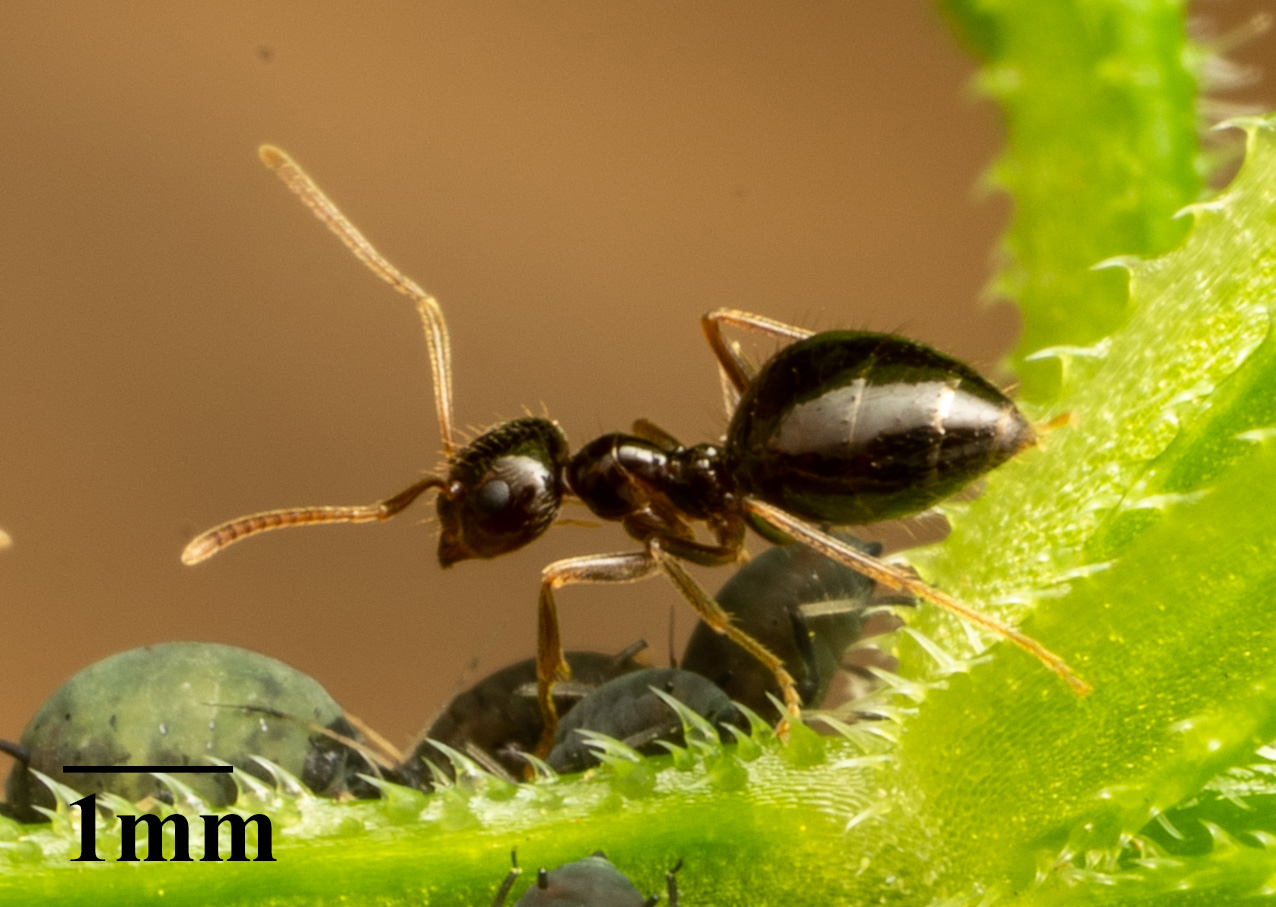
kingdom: Animalia
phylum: Arthropoda
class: Insecta
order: Hymenoptera
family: Formicidae
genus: Prenolepis
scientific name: Prenolepis imparis
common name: Small honey ant
